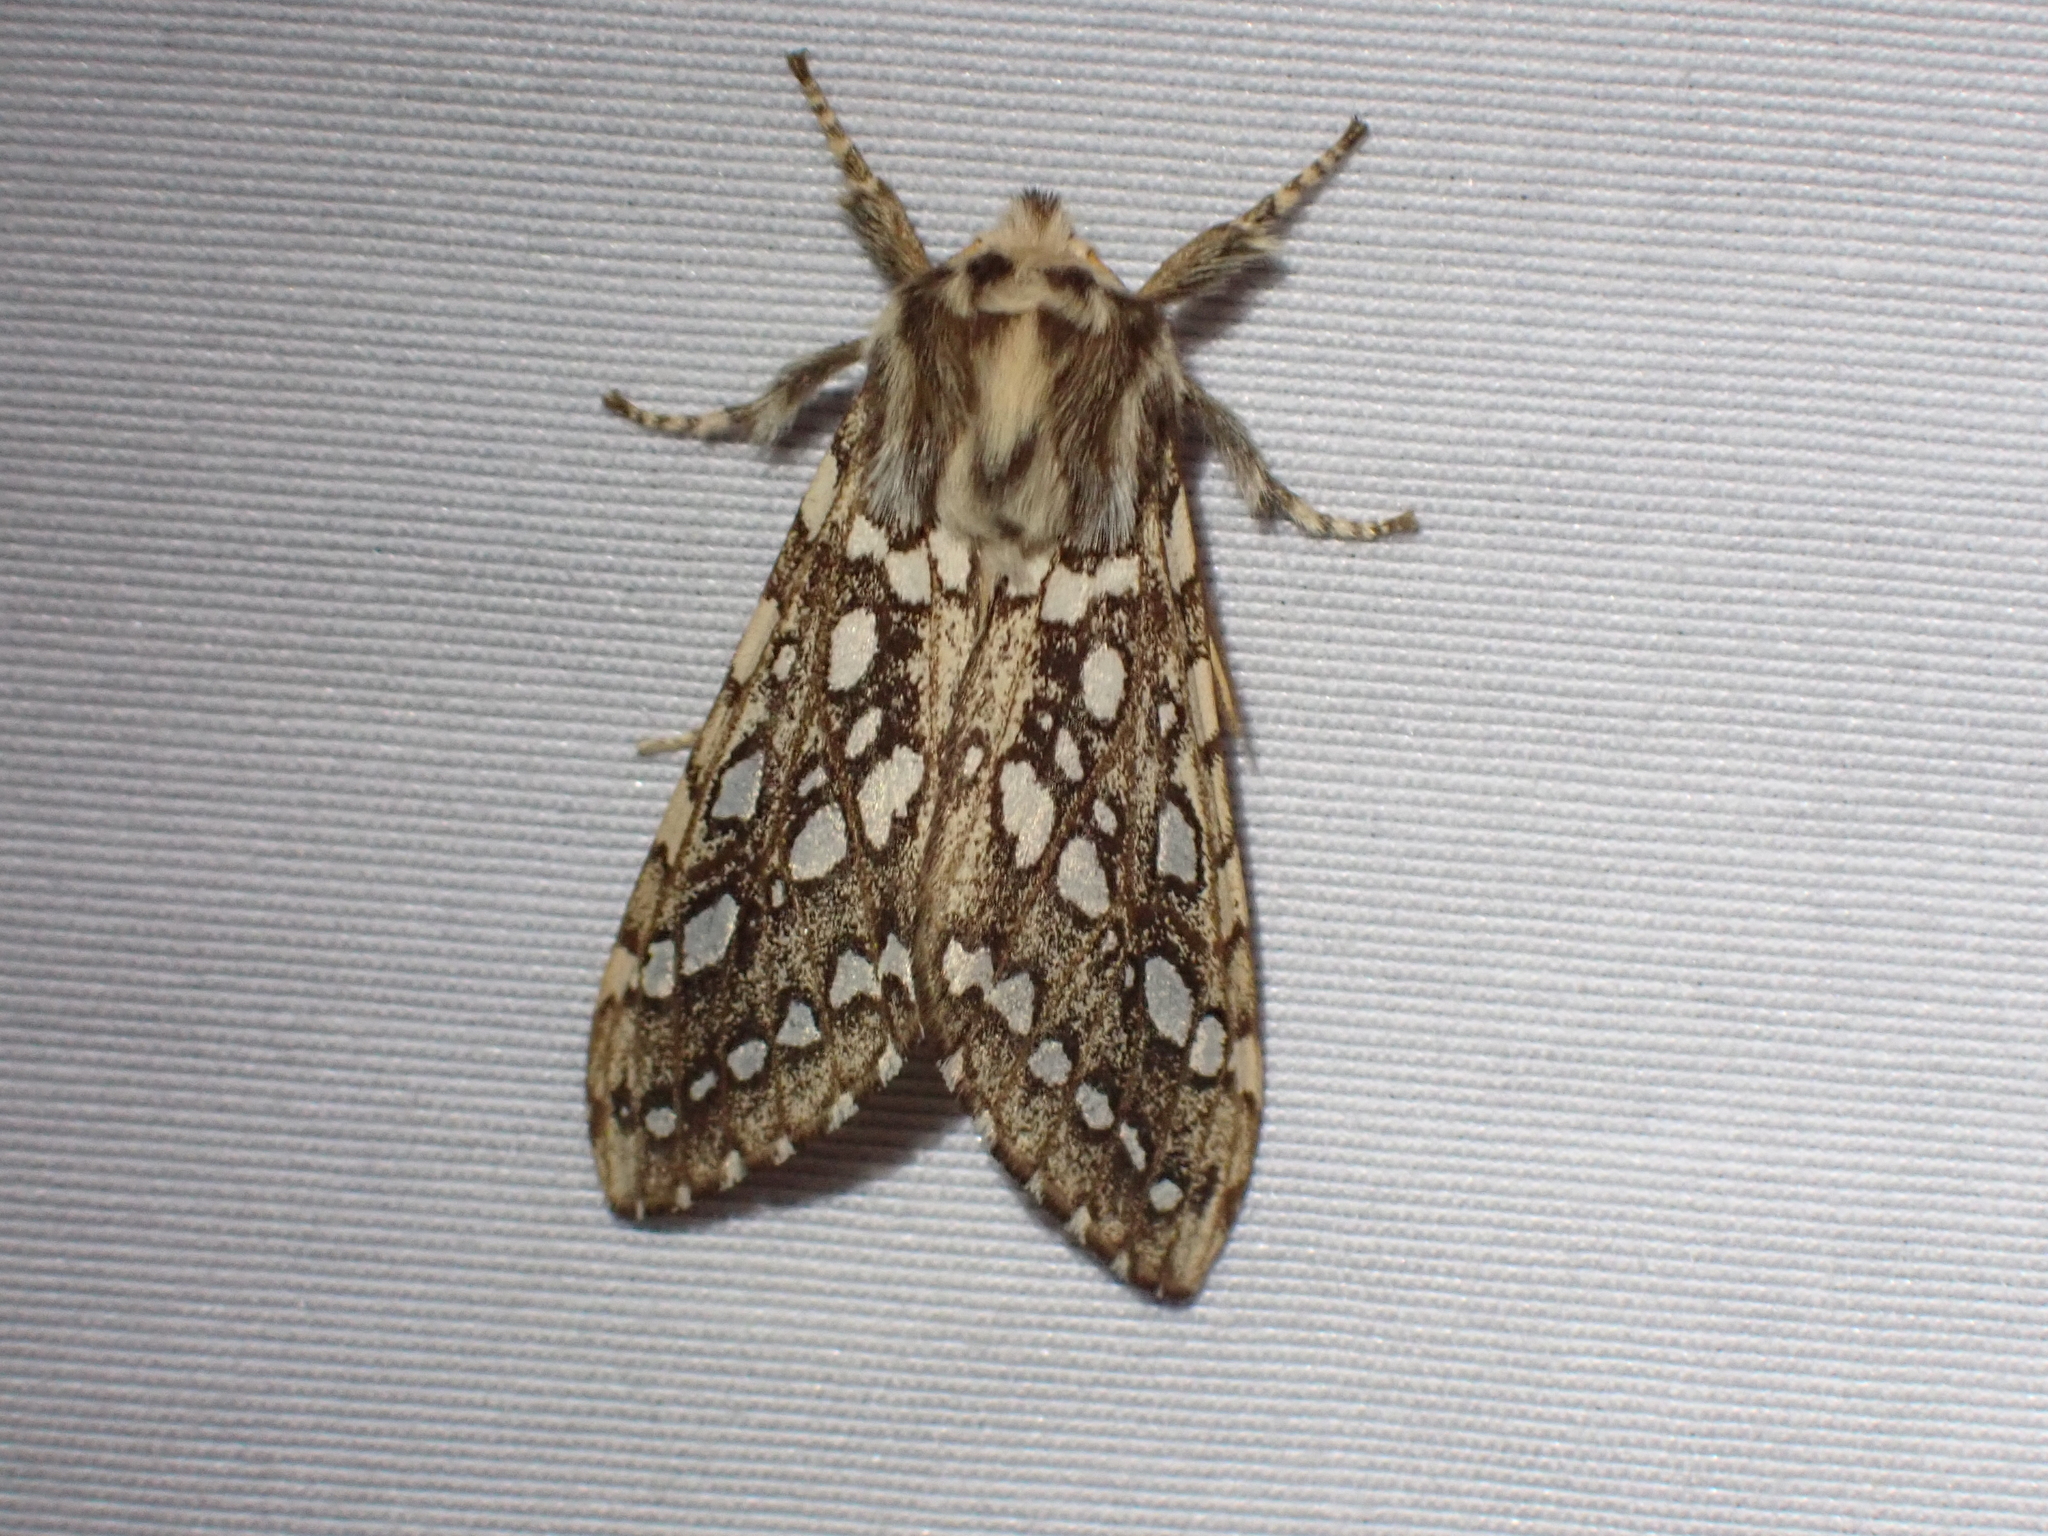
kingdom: Animalia
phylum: Arthropoda
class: Insecta
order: Lepidoptera
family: Erebidae
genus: Lophocampa
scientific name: Lophocampa argentata
